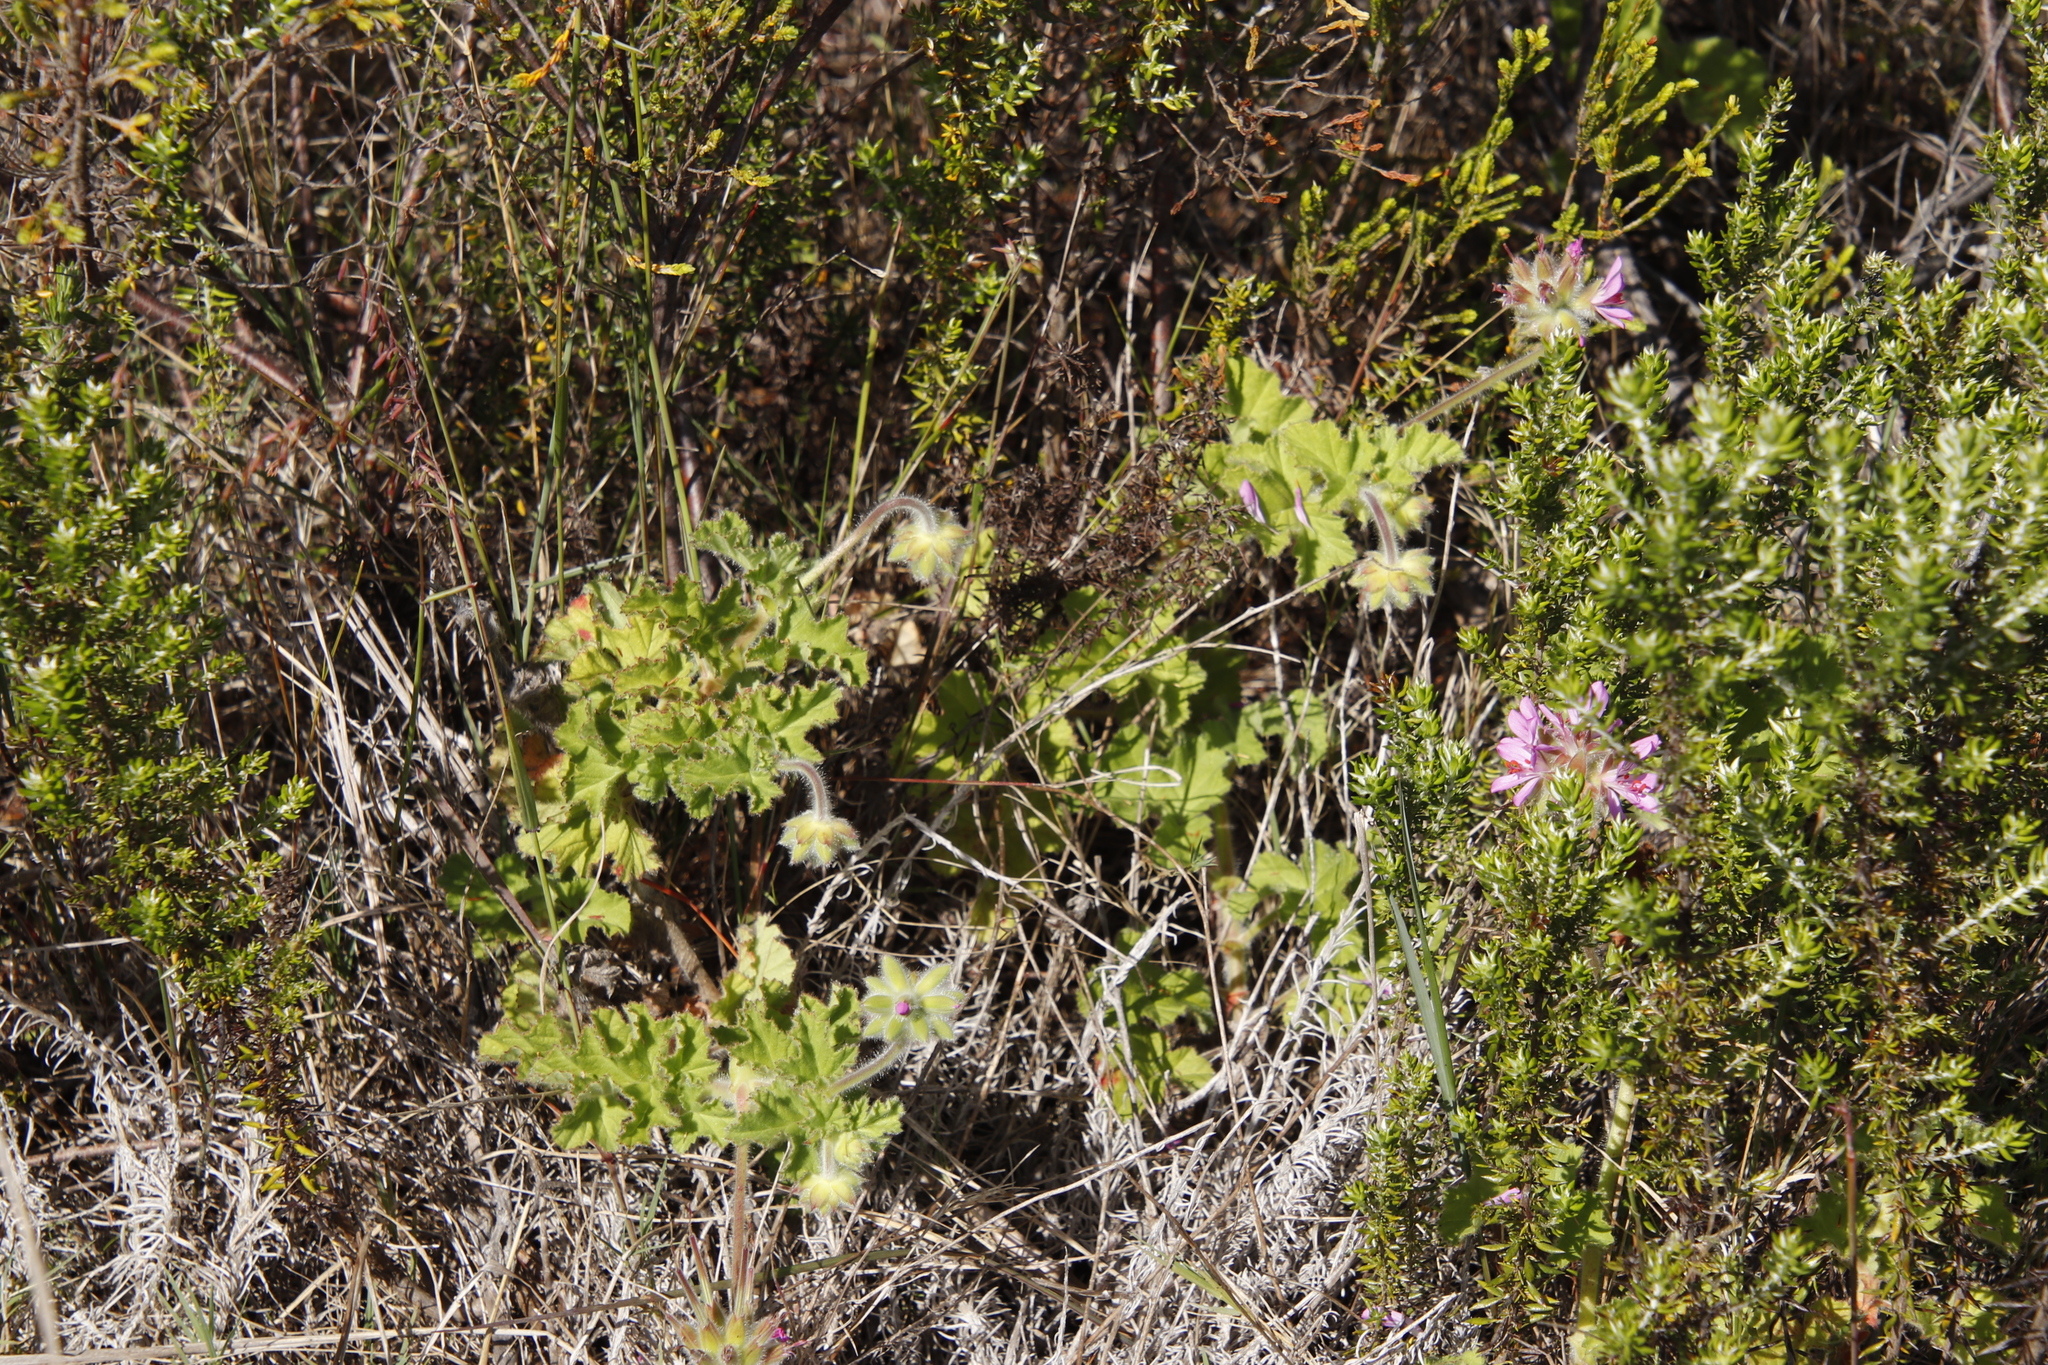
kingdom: Plantae
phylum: Tracheophyta
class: Magnoliopsida
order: Geraniales
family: Geraniaceae
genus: Pelargonium
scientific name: Pelargonium capitatum
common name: Rose scented geranium
